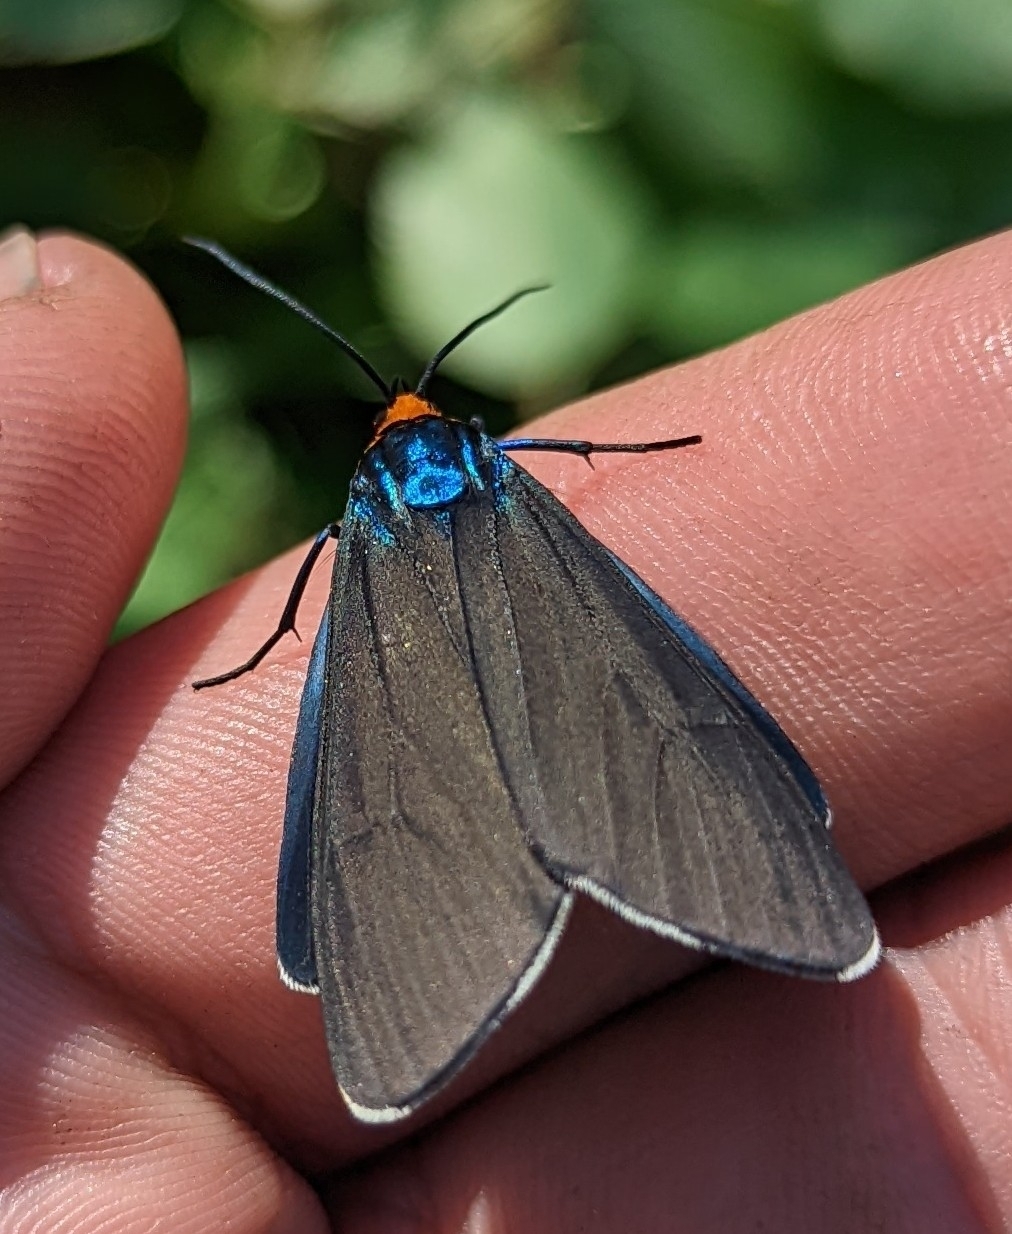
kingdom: Animalia
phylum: Arthropoda
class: Insecta
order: Lepidoptera
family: Erebidae
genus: Ctenucha
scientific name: Ctenucha virginica
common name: Virginia ctenucha moth
